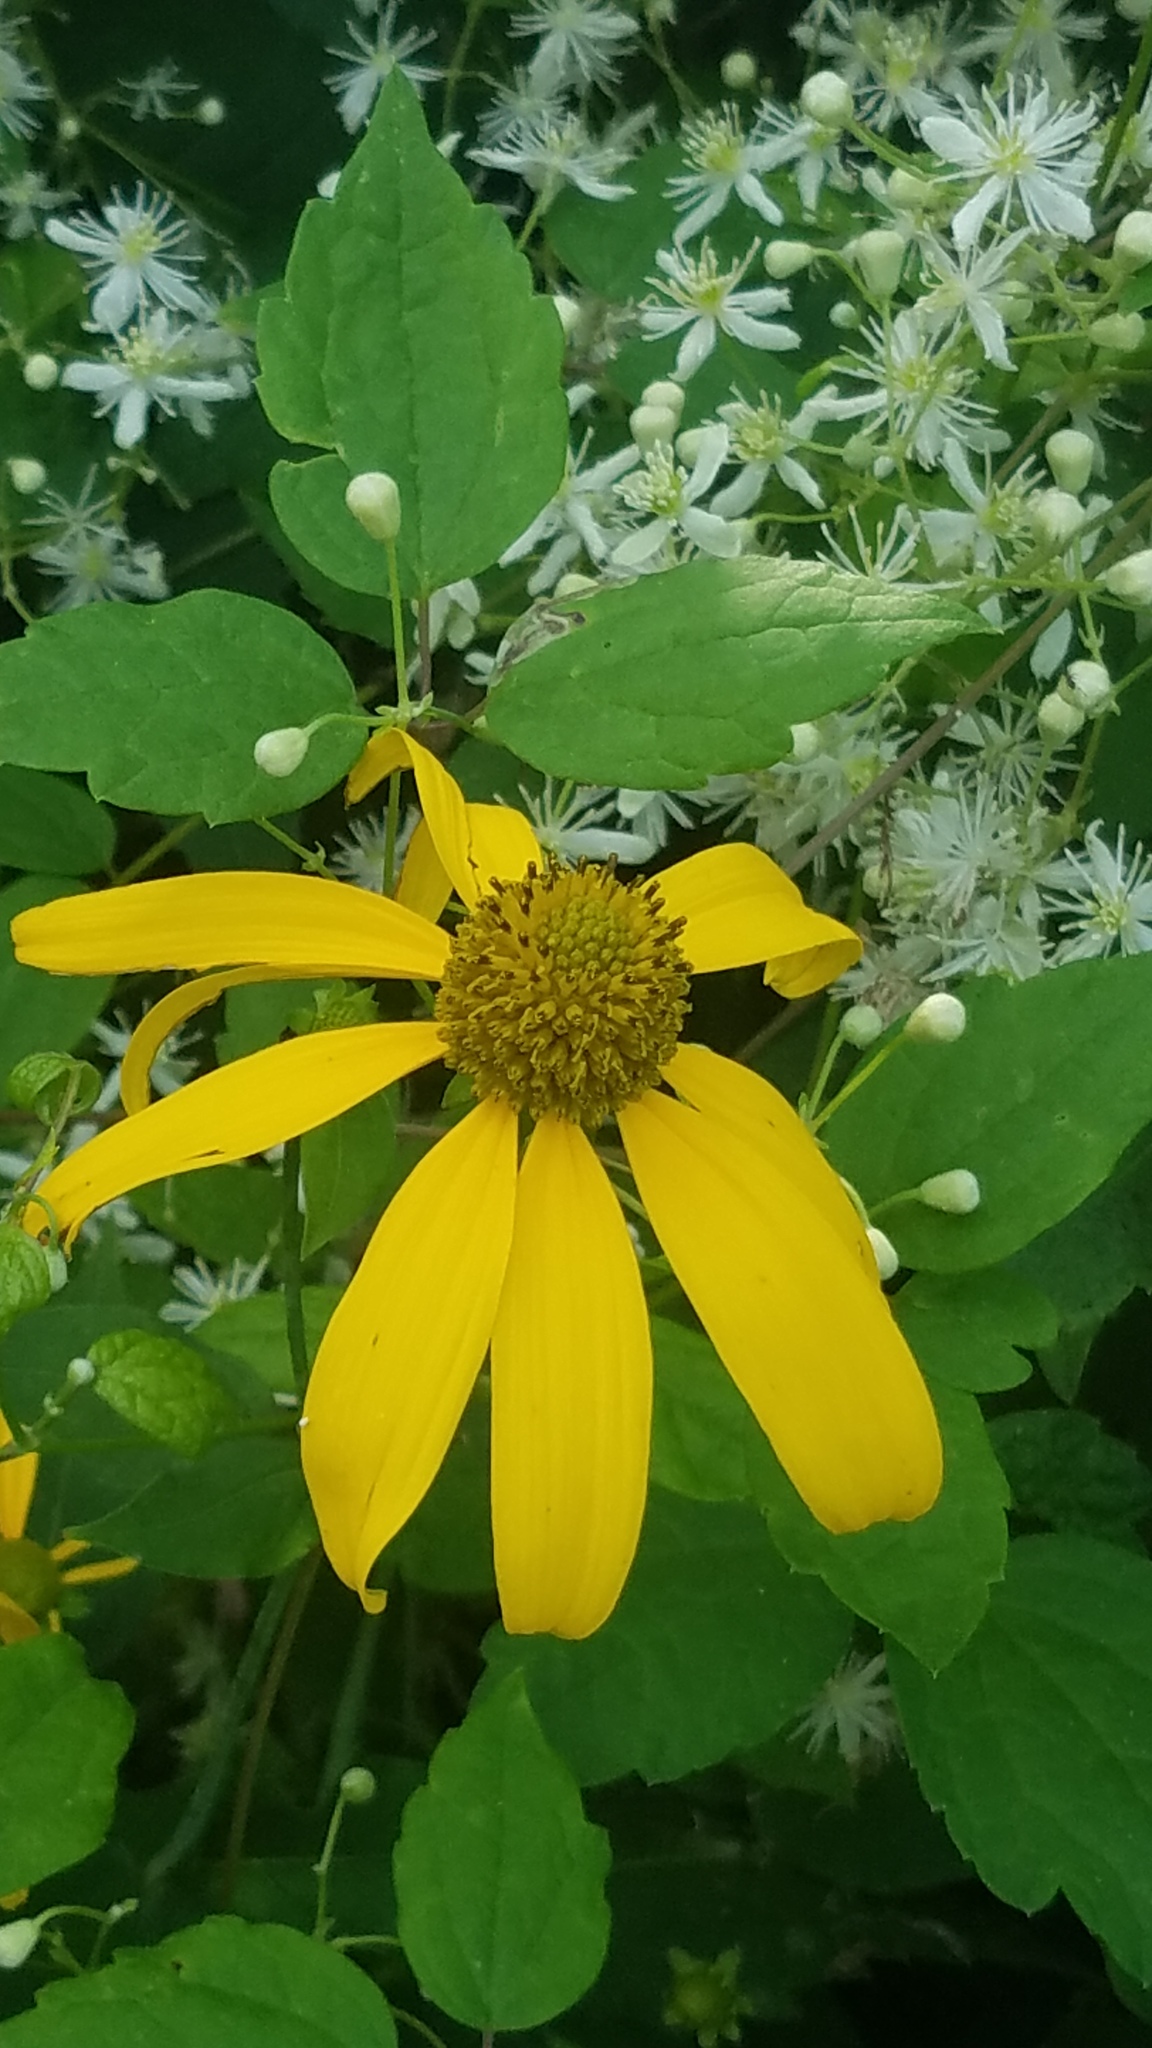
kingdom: Plantae
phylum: Tracheophyta
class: Magnoliopsida
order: Asterales
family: Asteraceae
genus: Rudbeckia
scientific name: Rudbeckia laciniata
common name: Coneflower
